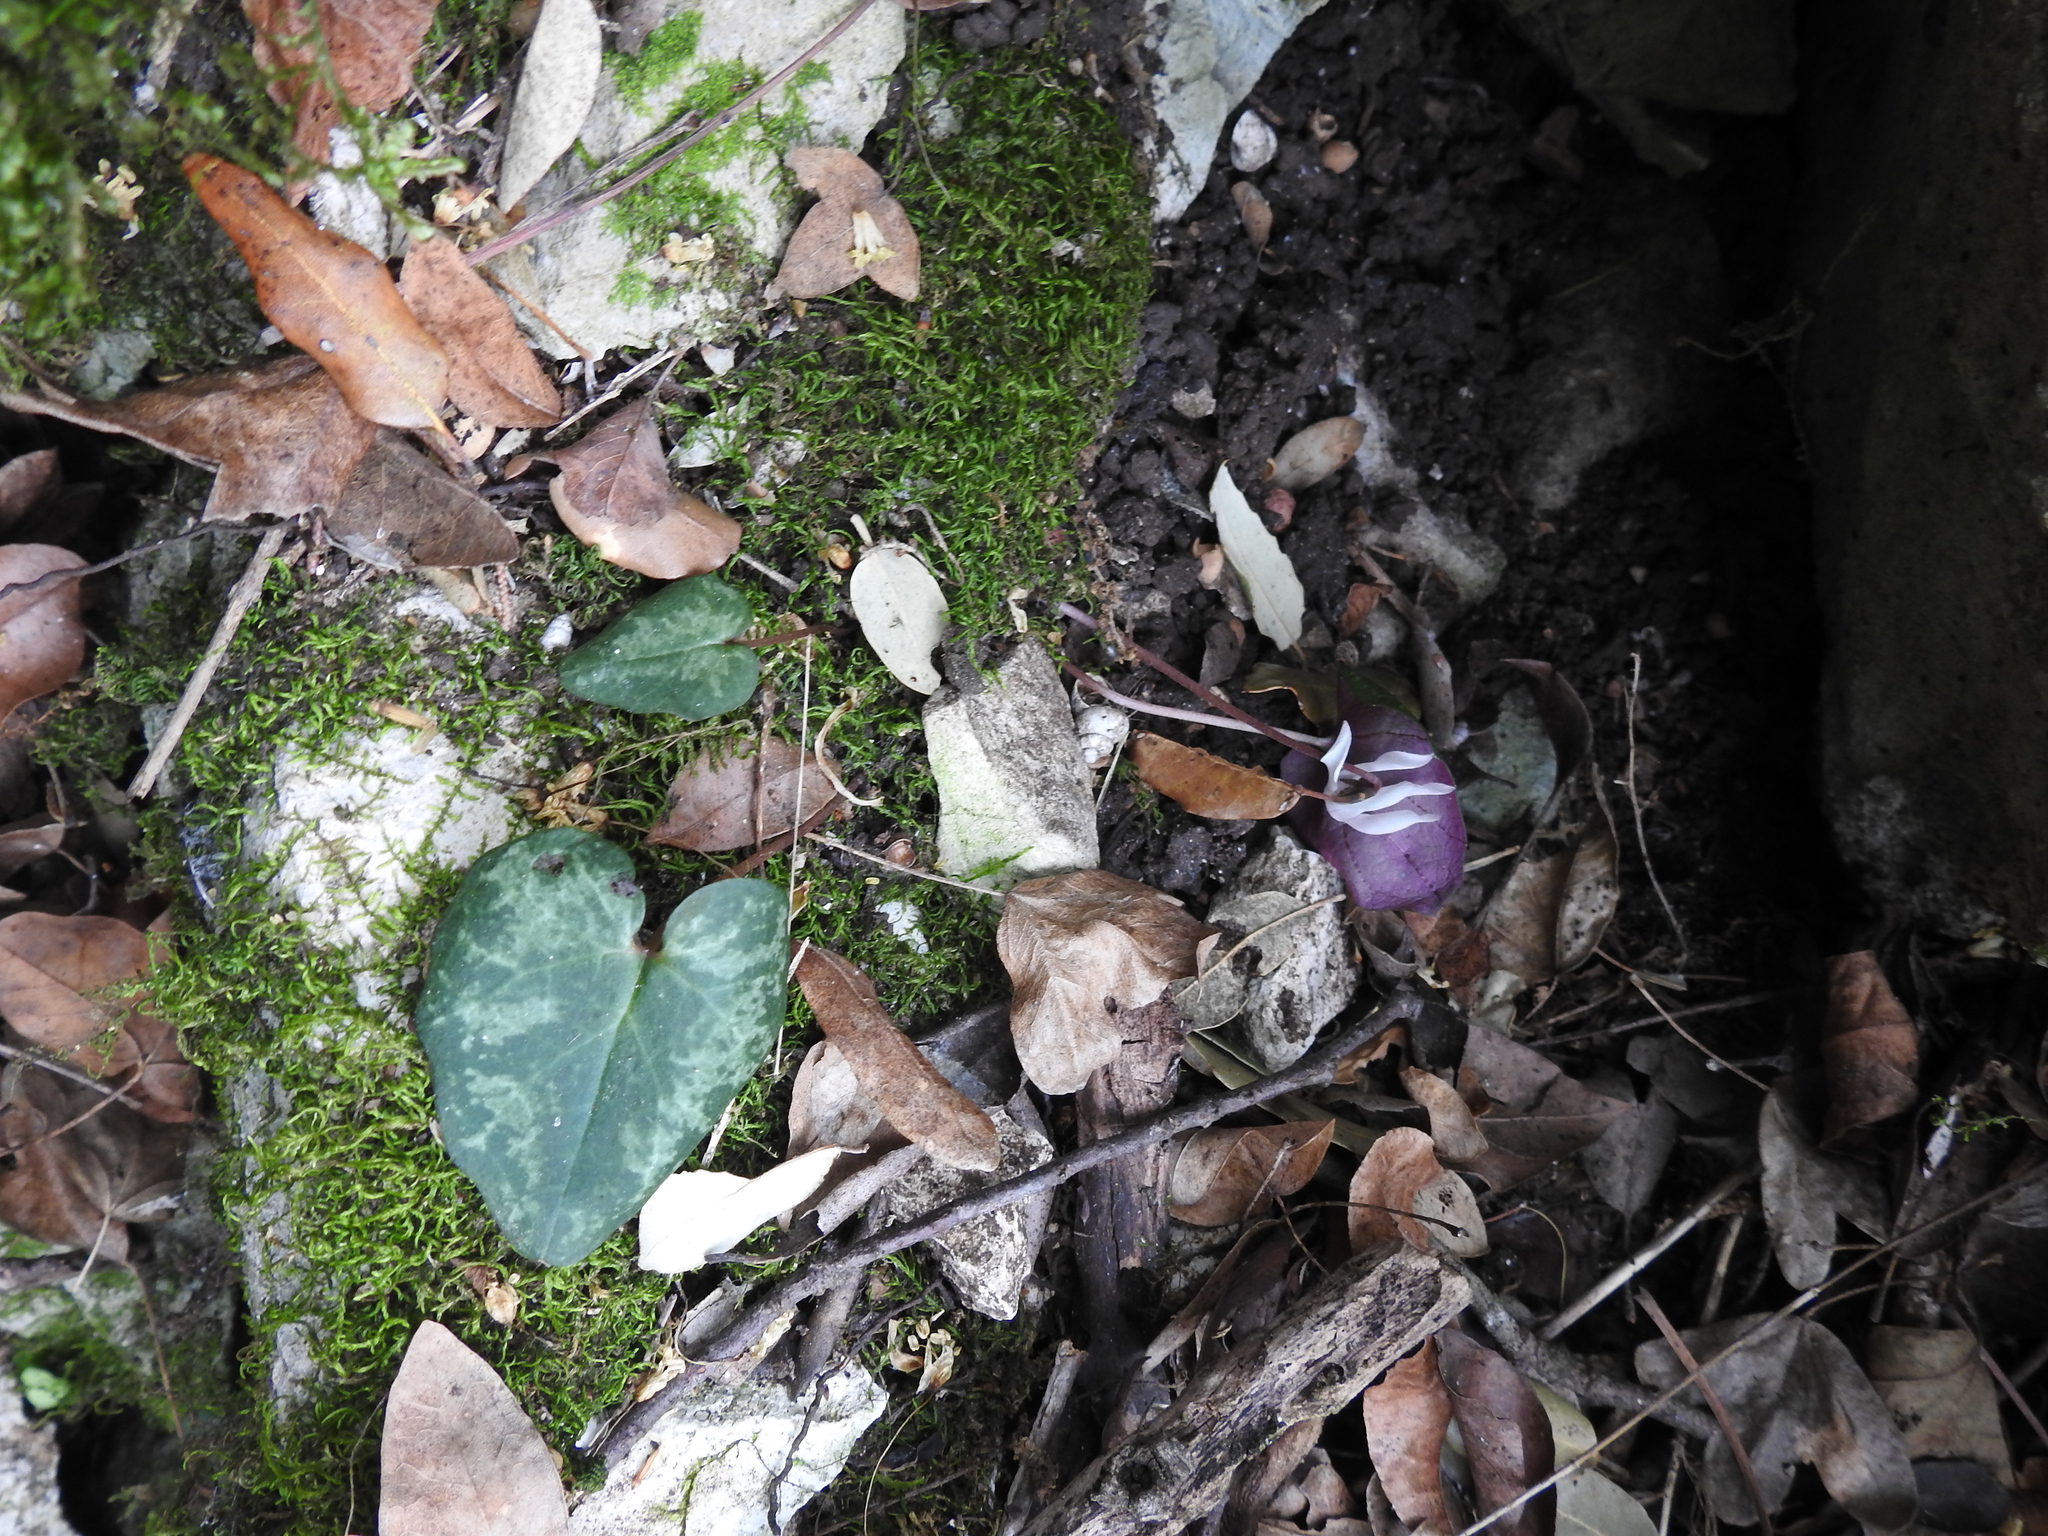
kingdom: Plantae
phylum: Tracheophyta
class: Magnoliopsida
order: Ericales
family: Primulaceae
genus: Cyclamen
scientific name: Cyclamen balearicum
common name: Majorca cyclamen
